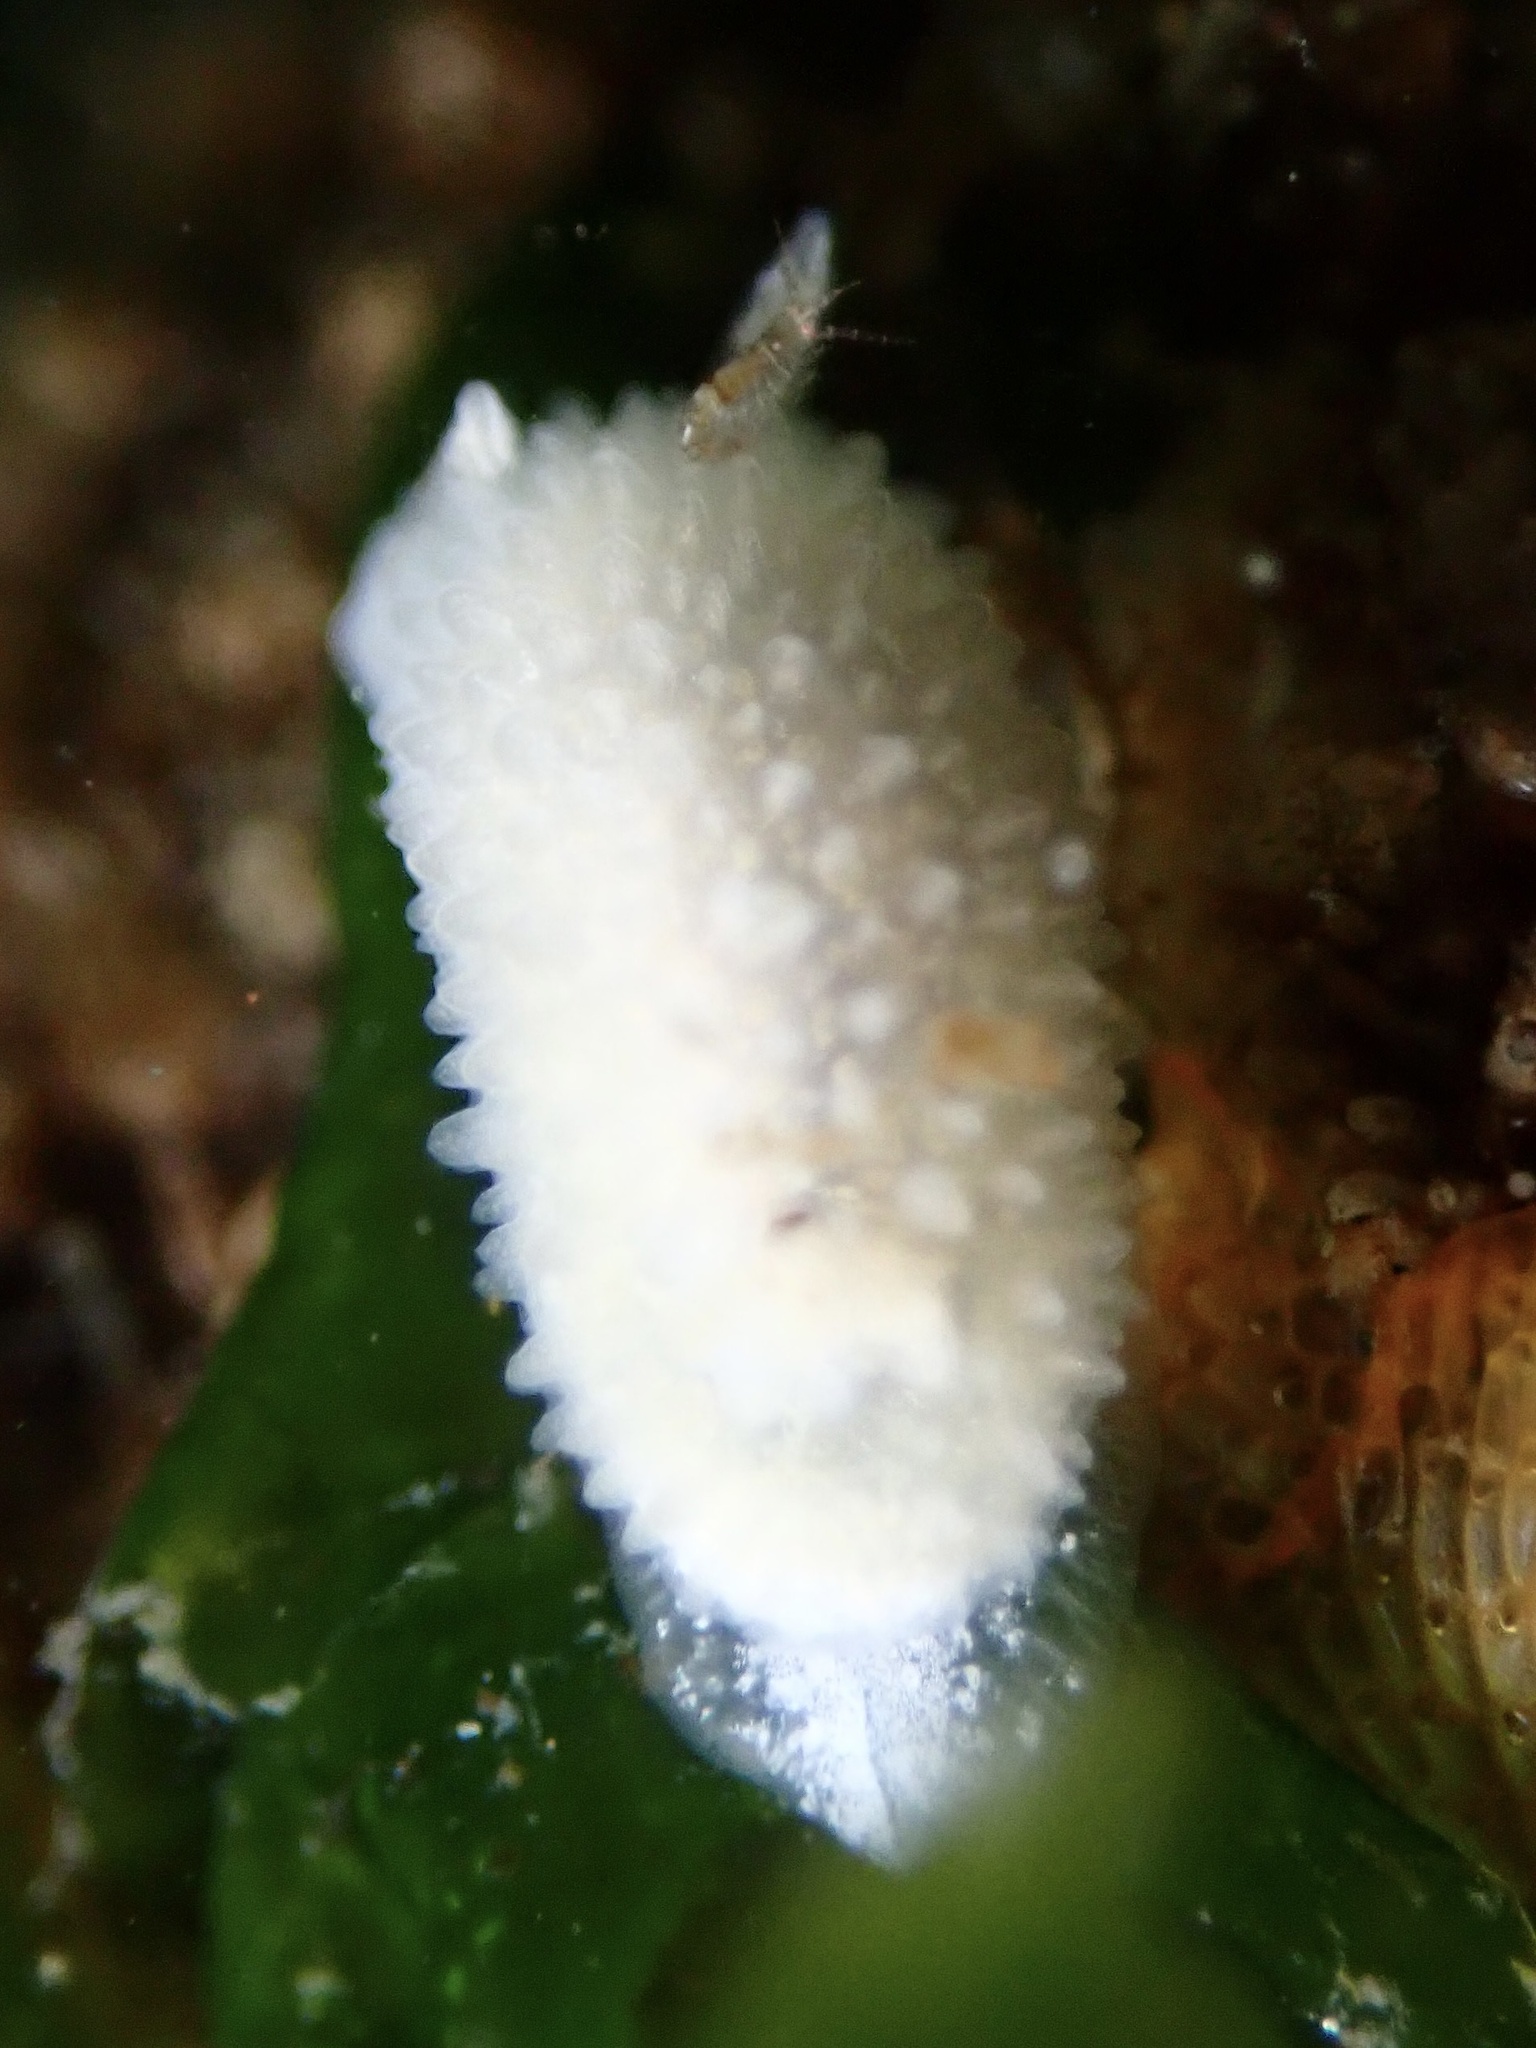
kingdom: Animalia
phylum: Mollusca
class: Gastropoda
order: Nudibranchia
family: Calycidorididae
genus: Diaphorodoris
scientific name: Diaphorodoris lirulatocauda
